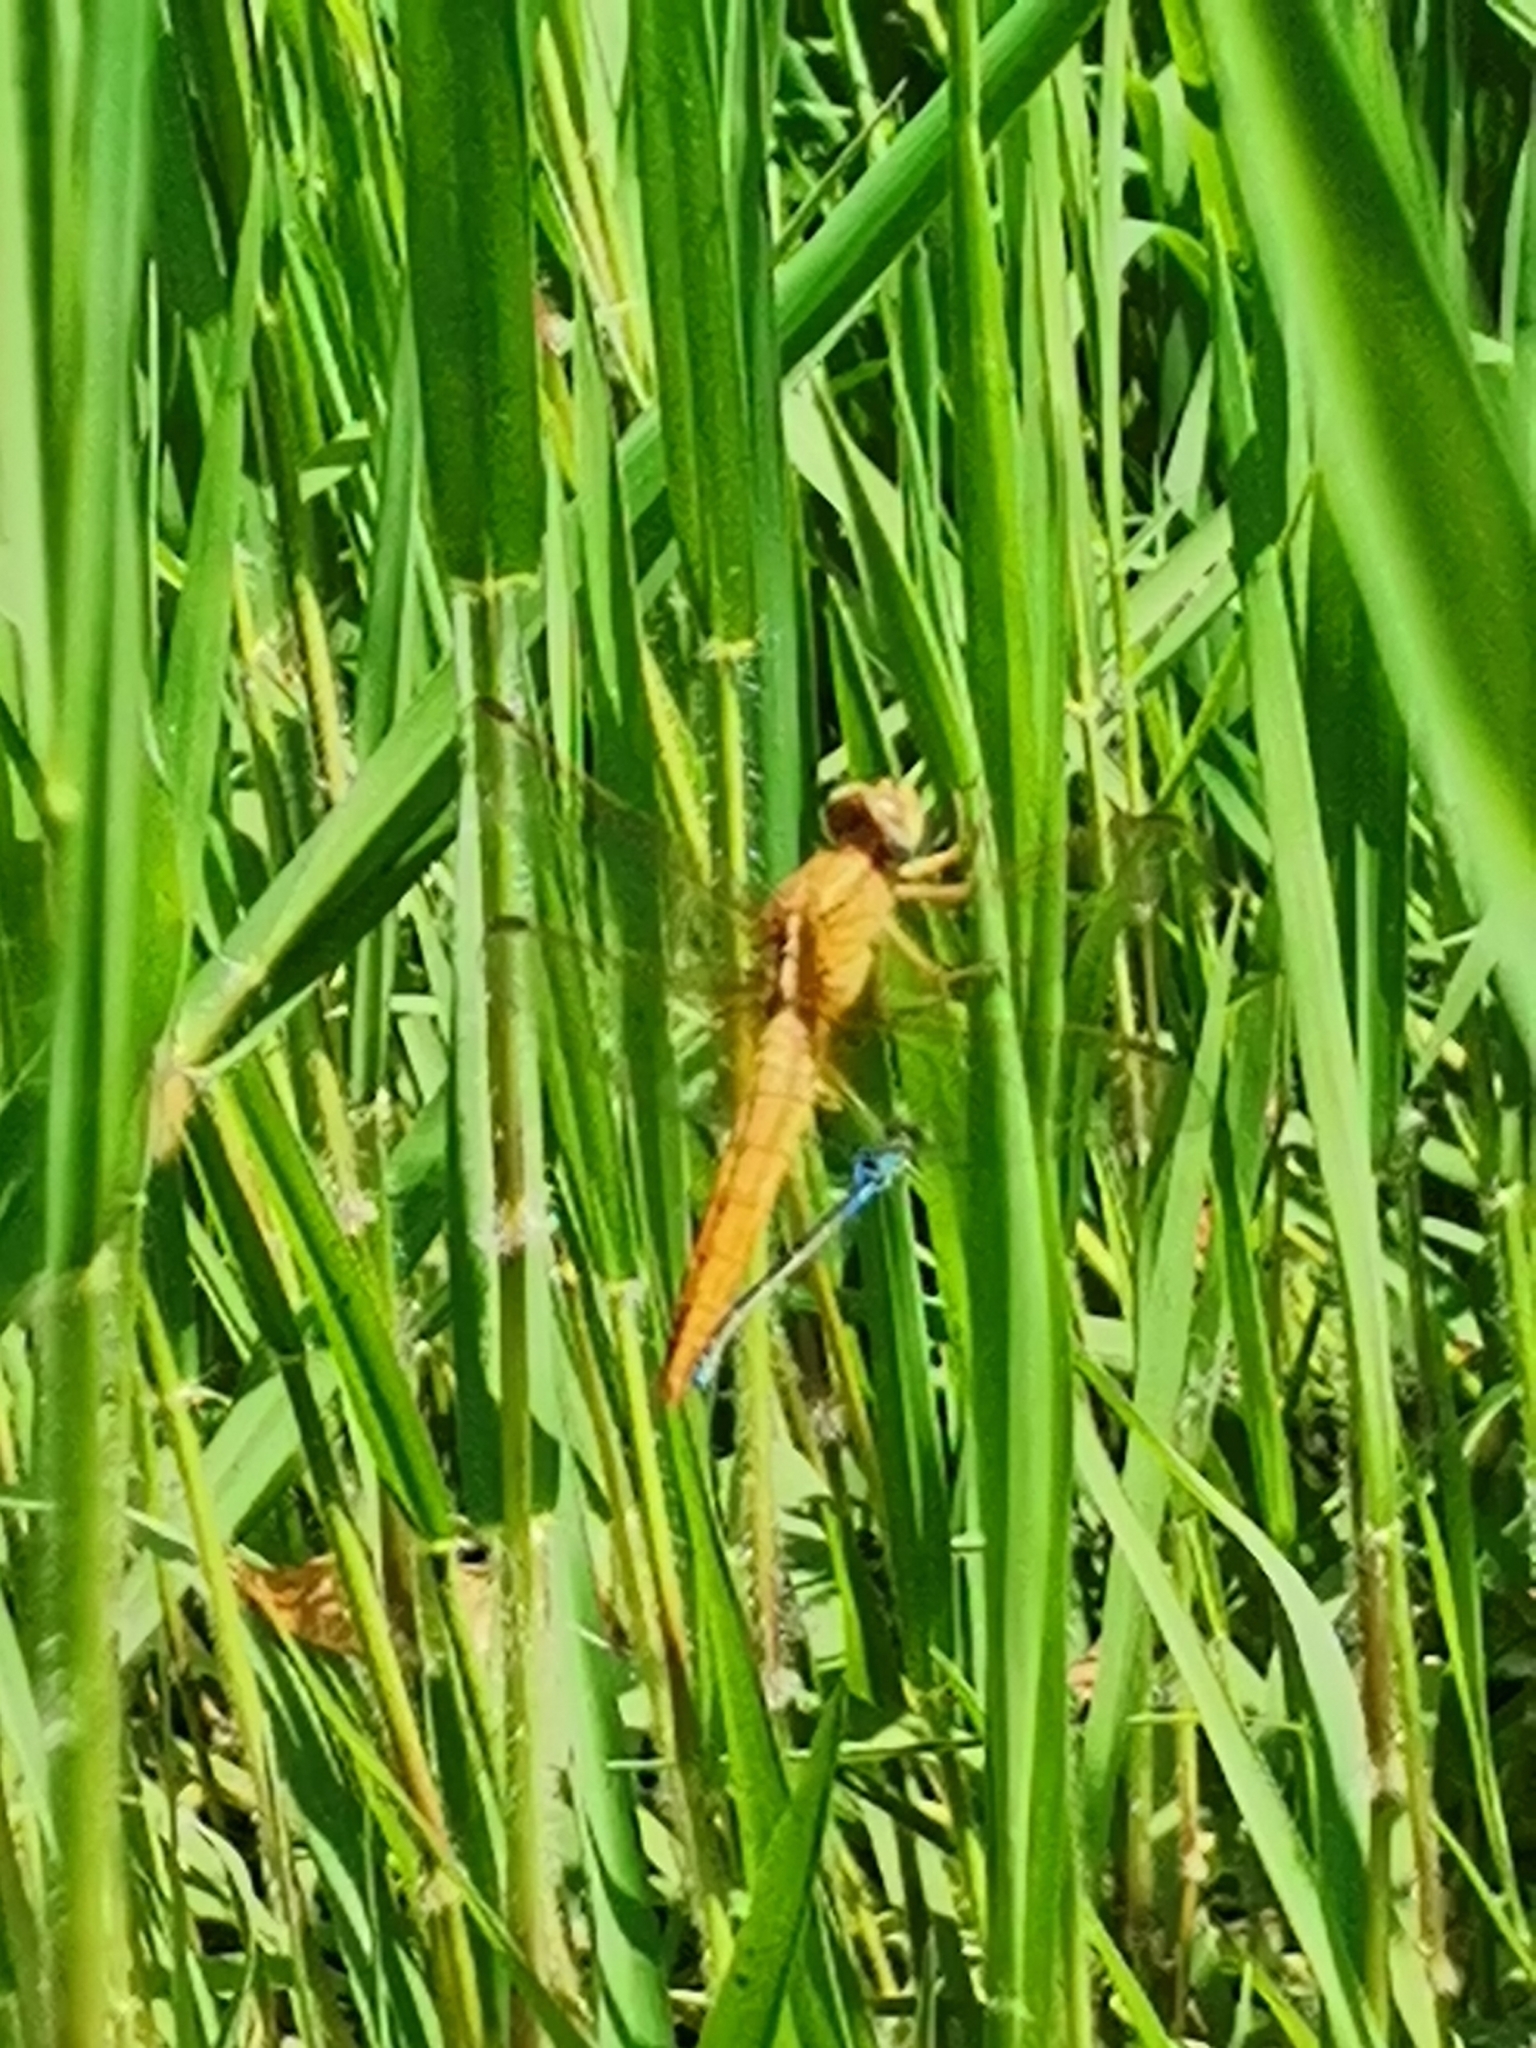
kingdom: Animalia
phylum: Arthropoda
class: Insecta
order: Odonata
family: Libellulidae
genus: Crocothemis
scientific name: Crocothemis erythraea
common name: Scarlet dragonfly
